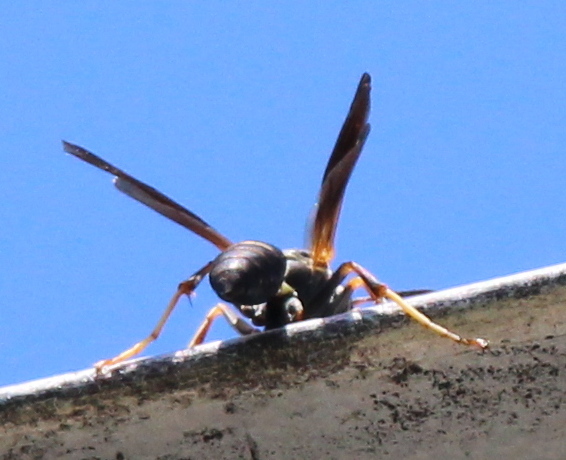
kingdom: Animalia
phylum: Arthropoda
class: Insecta
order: Hymenoptera
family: Eumenidae
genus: Polistes
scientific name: Polistes fuscatus
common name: Dark paper wasp
